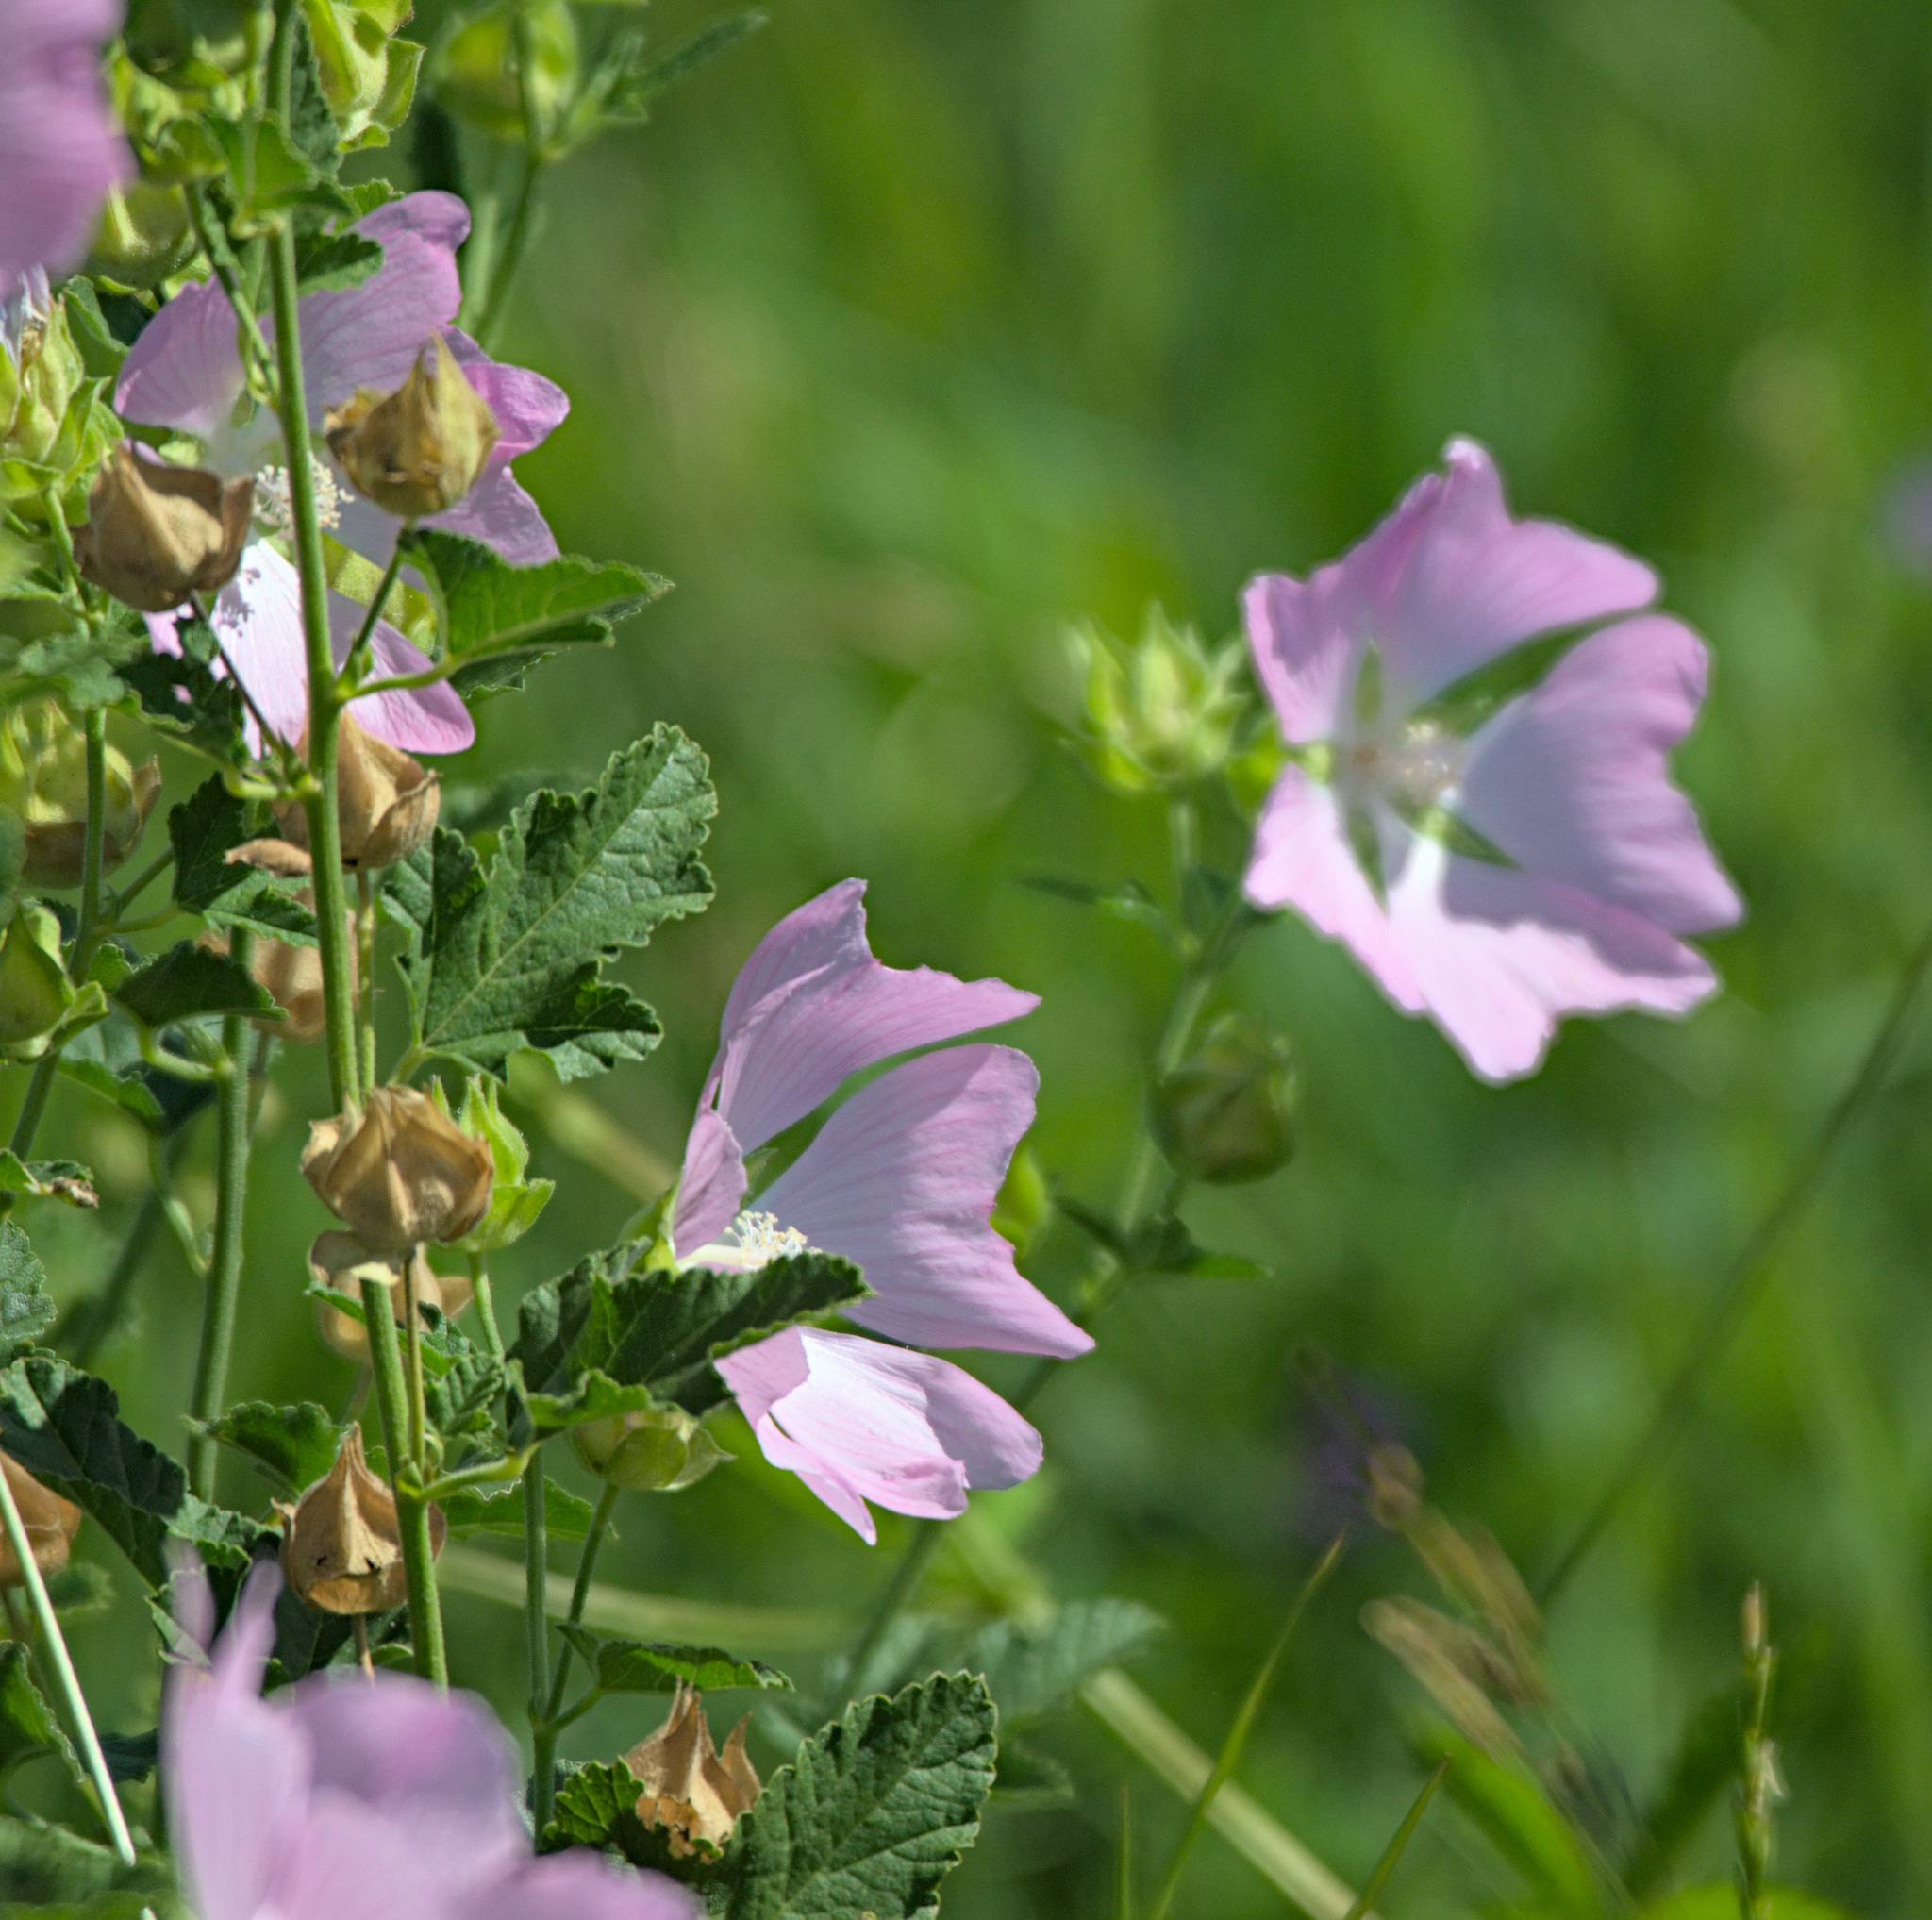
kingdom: Plantae
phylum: Tracheophyta
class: Magnoliopsida
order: Malvales
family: Malvaceae
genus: Malva
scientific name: Malva thuringiaca
